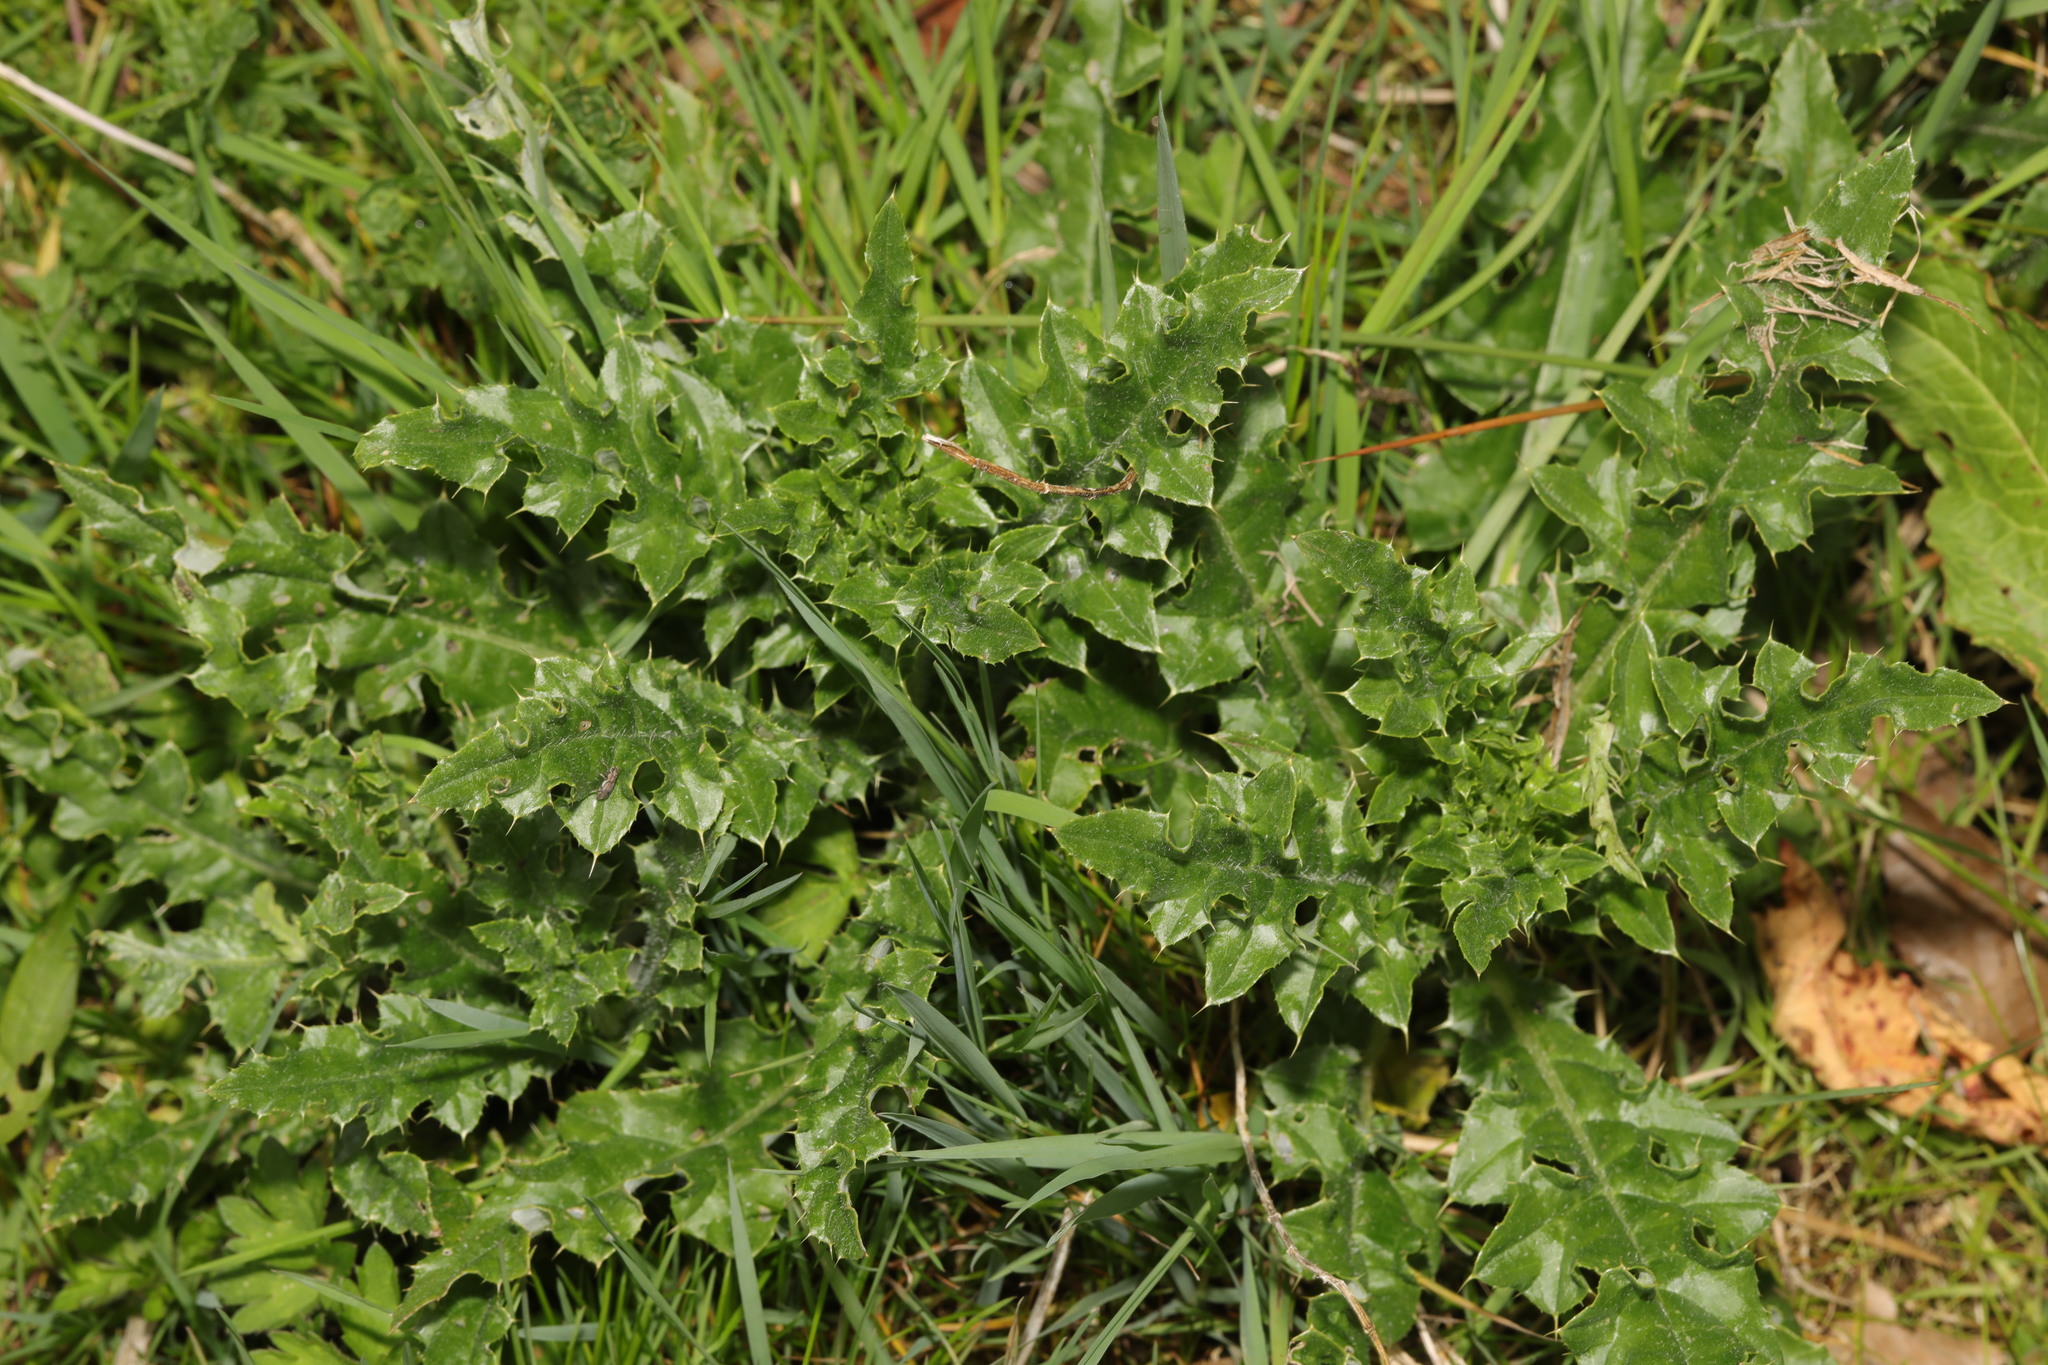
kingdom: Plantae
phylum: Tracheophyta
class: Magnoliopsida
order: Asterales
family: Asteraceae
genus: Cirsium
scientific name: Cirsium arvense
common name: Creeping thistle
